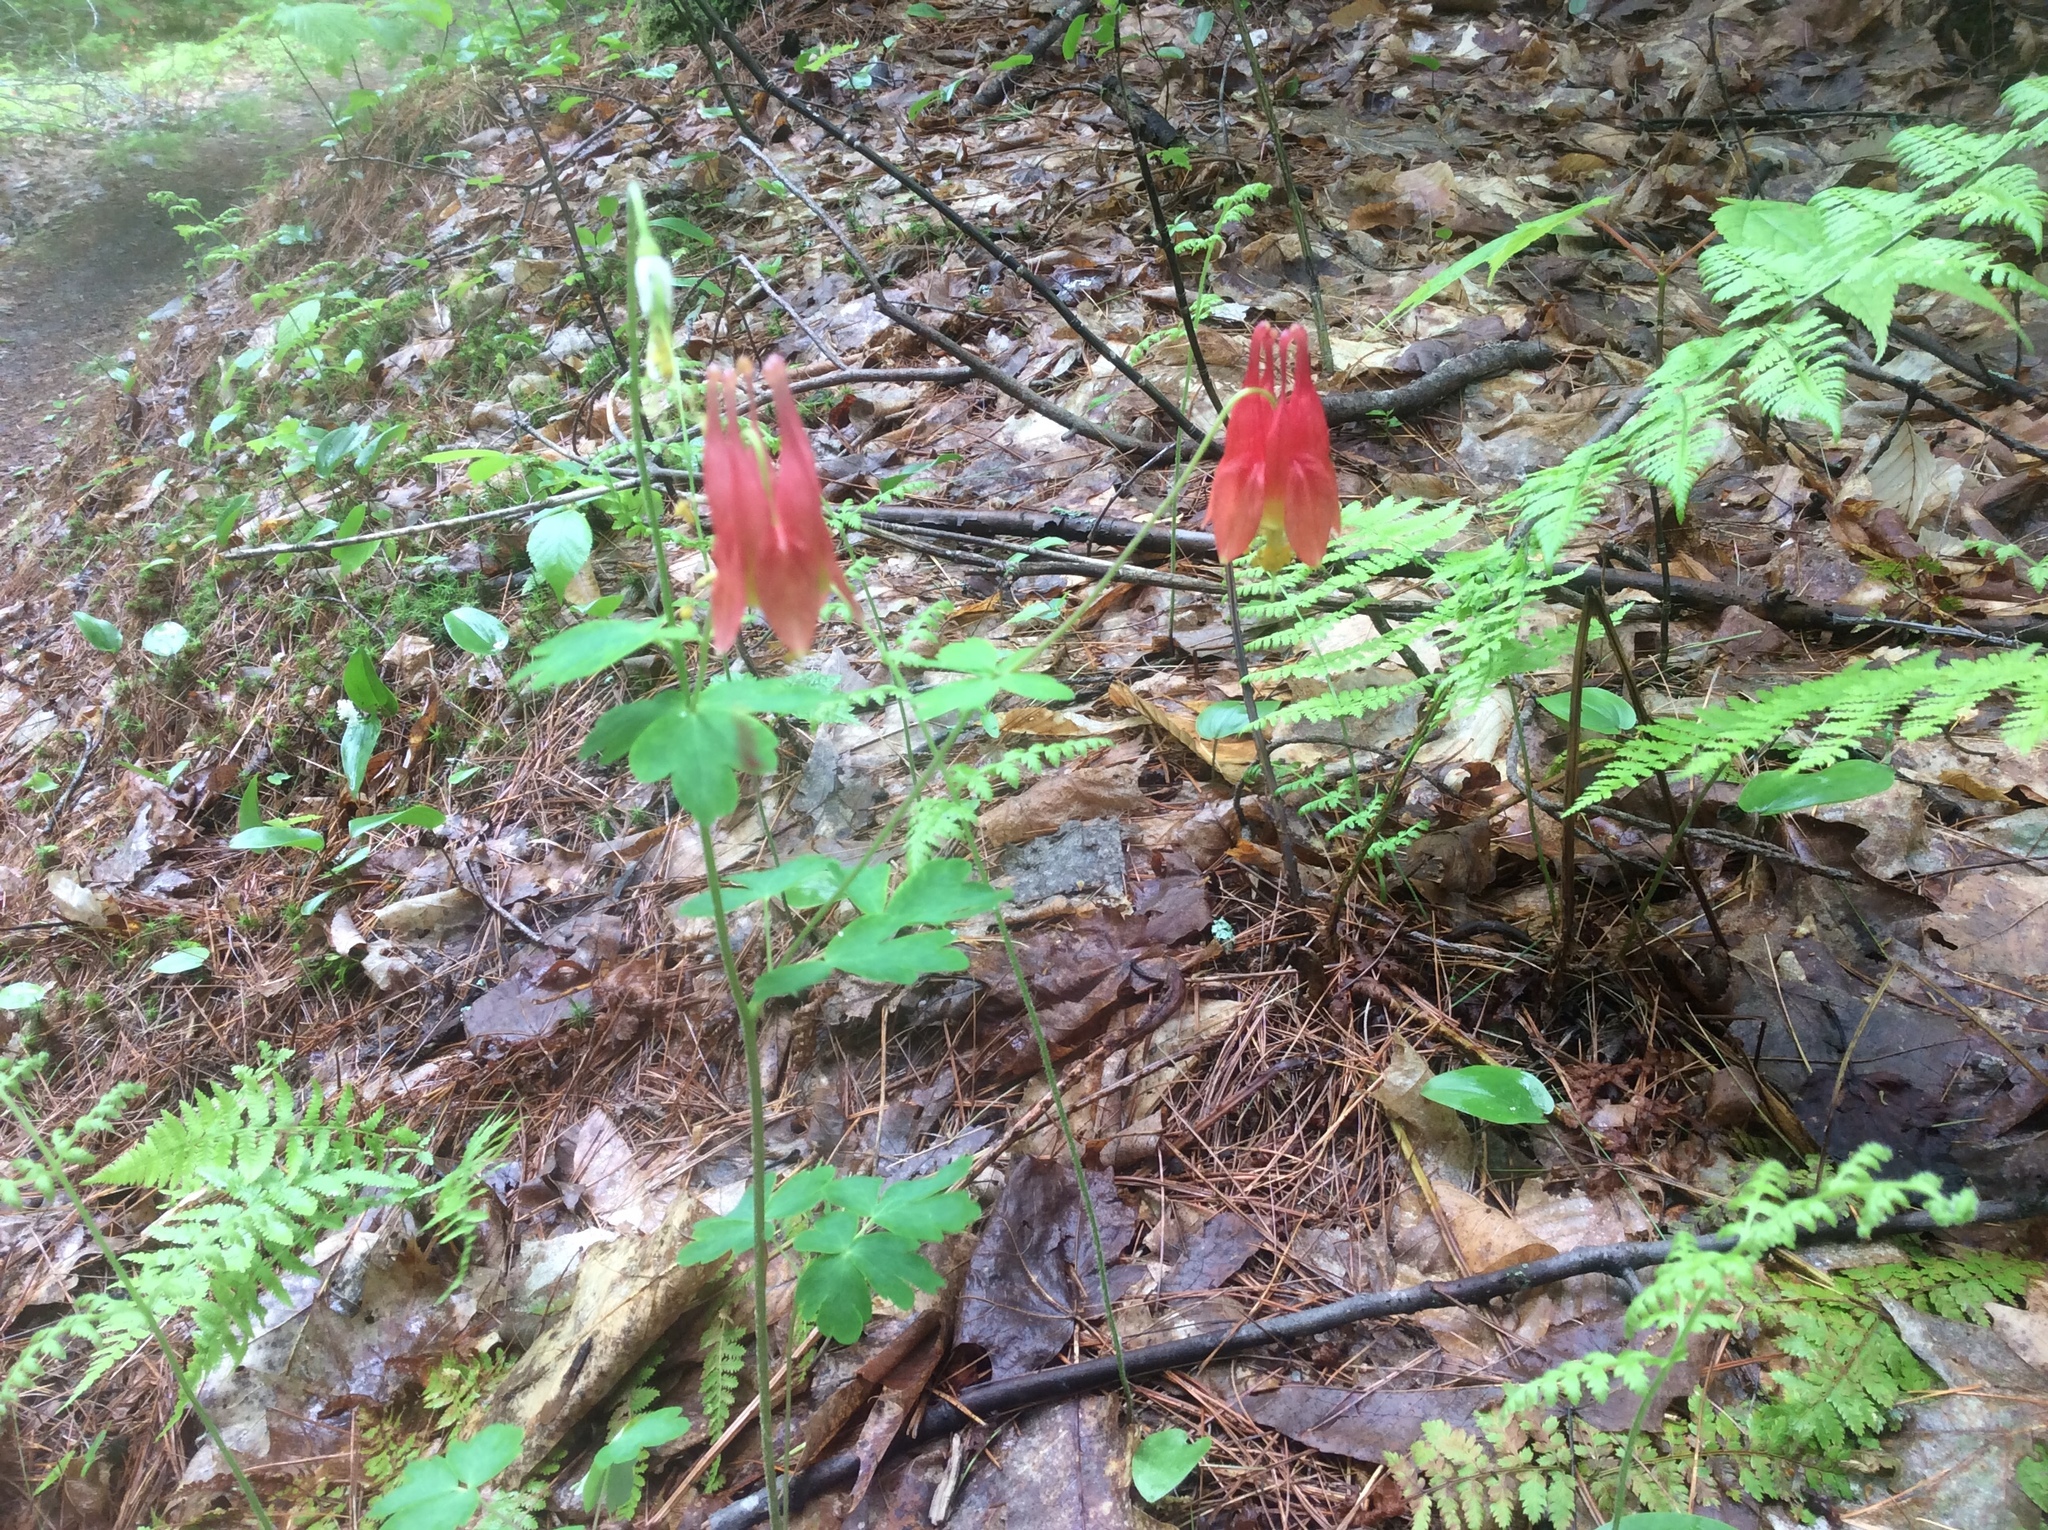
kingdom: Plantae
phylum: Tracheophyta
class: Magnoliopsida
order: Ranunculales
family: Ranunculaceae
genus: Aquilegia
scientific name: Aquilegia canadensis
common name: American columbine
